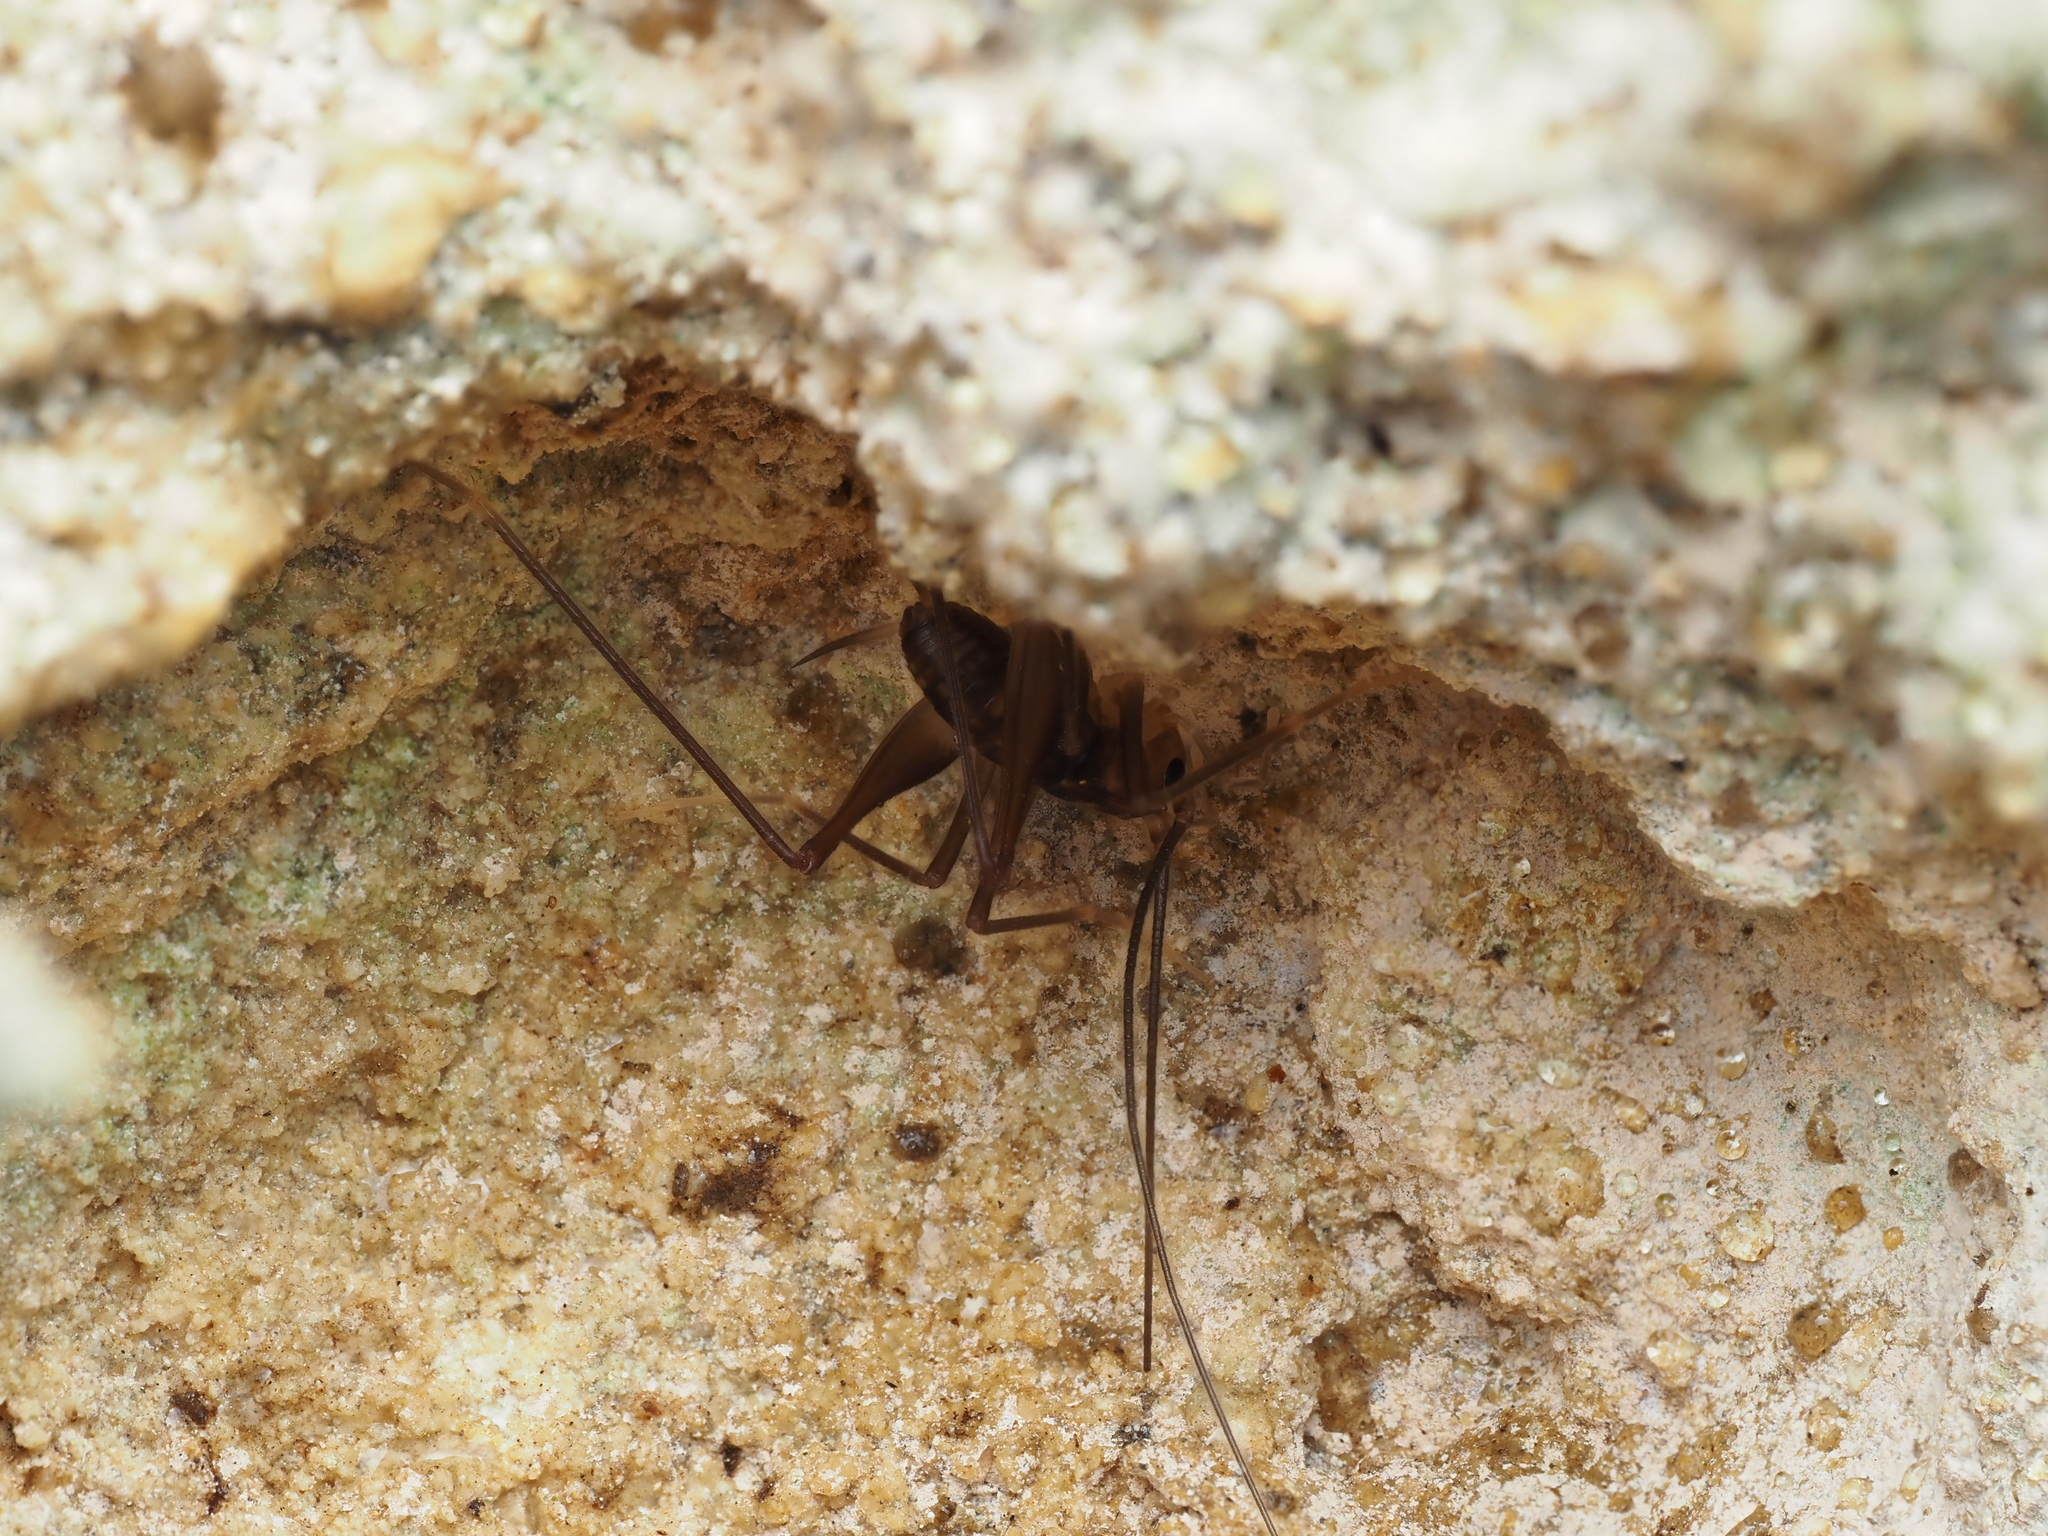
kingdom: Animalia
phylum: Arthropoda
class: Insecta
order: Orthoptera
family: Rhaphidophoridae
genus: Macropathus
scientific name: Macropathus filifer
